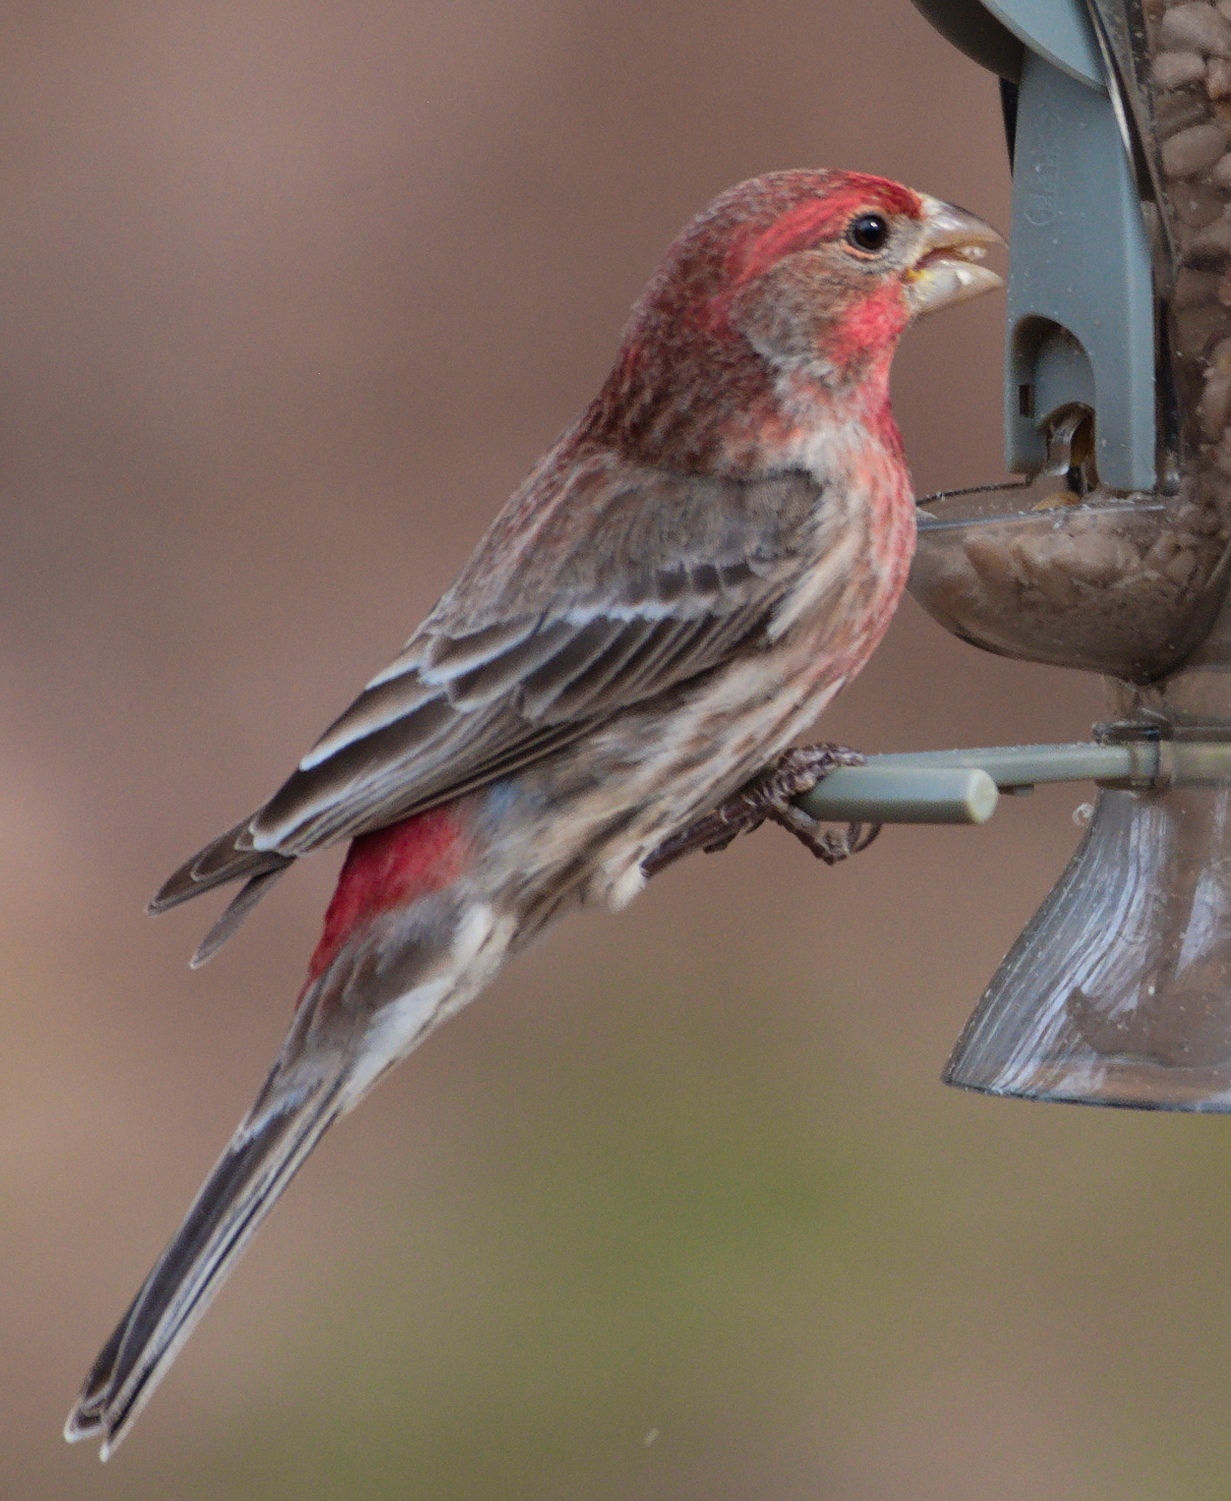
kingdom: Animalia
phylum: Chordata
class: Aves
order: Passeriformes
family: Fringillidae
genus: Haemorhous
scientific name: Haemorhous mexicanus
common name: House finch
